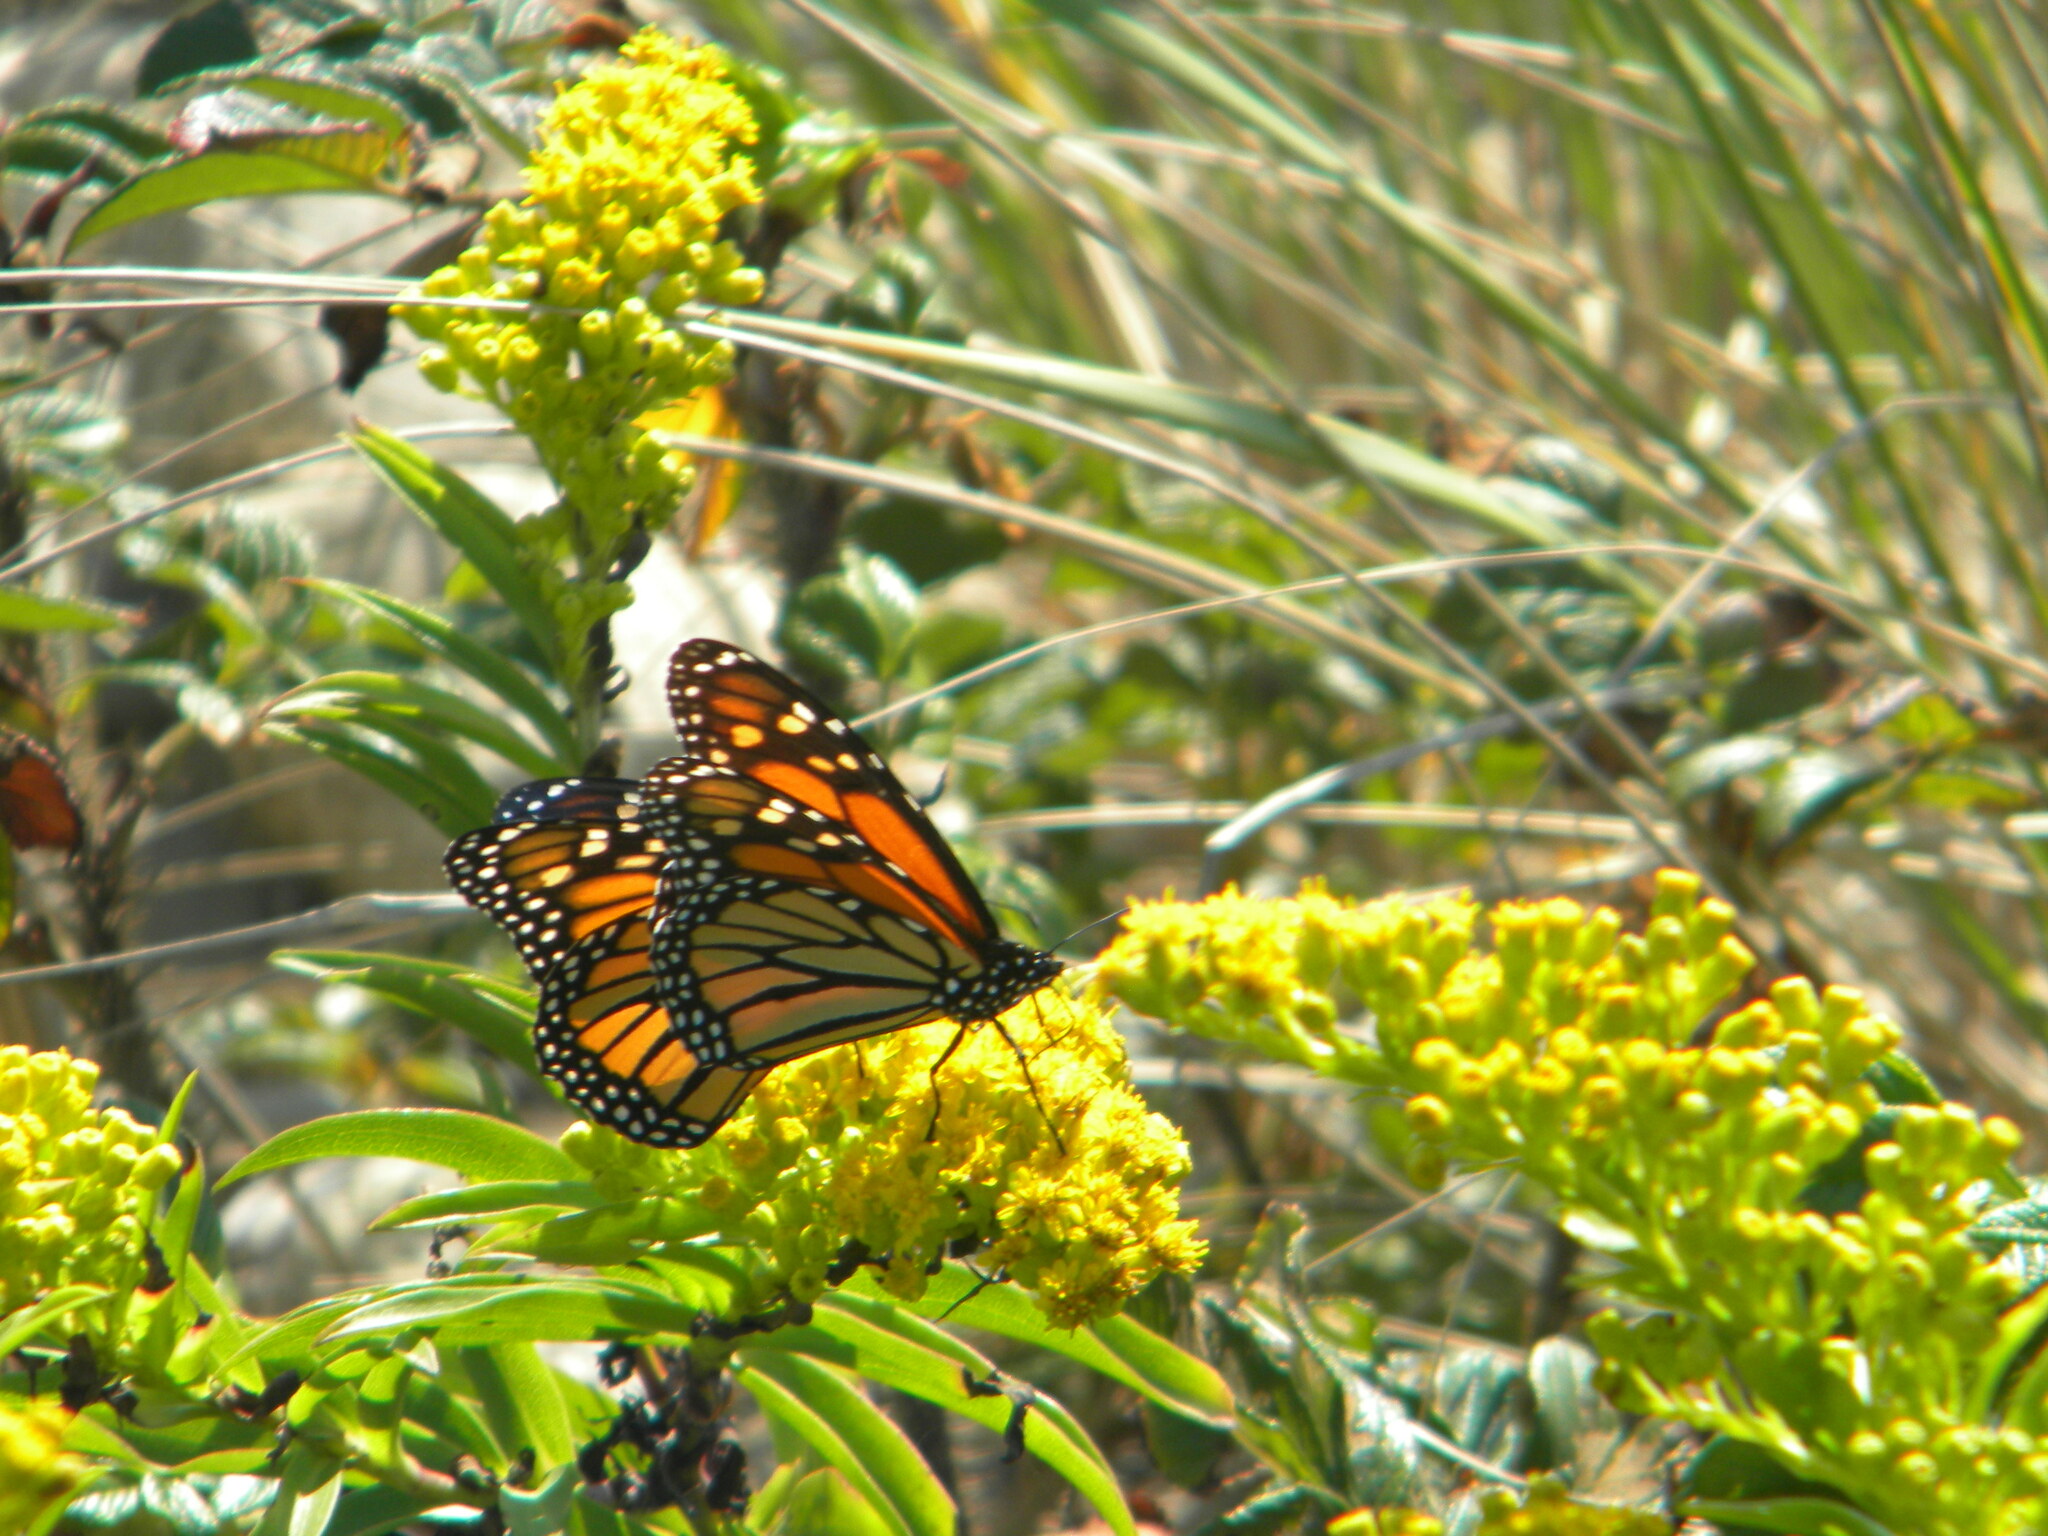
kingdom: Animalia
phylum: Arthropoda
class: Insecta
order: Lepidoptera
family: Nymphalidae
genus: Danaus
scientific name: Danaus plexippus
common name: Monarch
